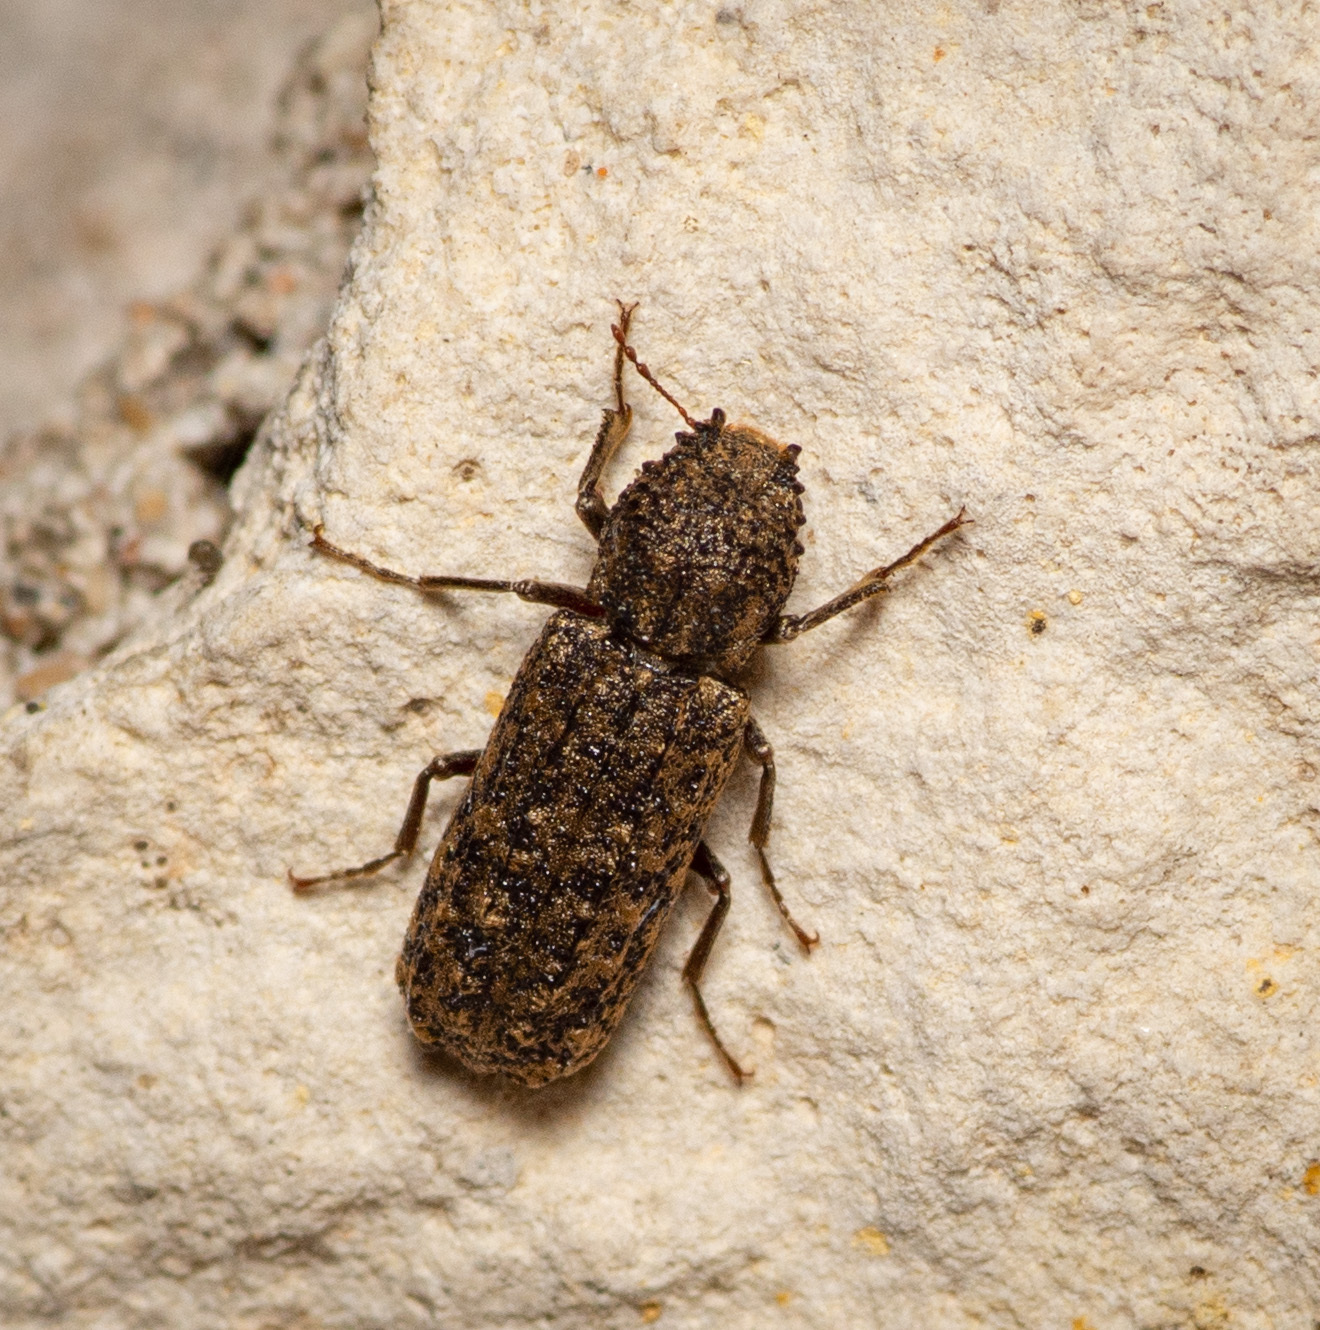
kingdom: Animalia
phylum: Arthropoda
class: Insecta
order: Coleoptera
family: Bostrichidae
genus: Lichenophanes
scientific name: Lichenophanes bicornis
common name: Two-horned powder-post beetle
